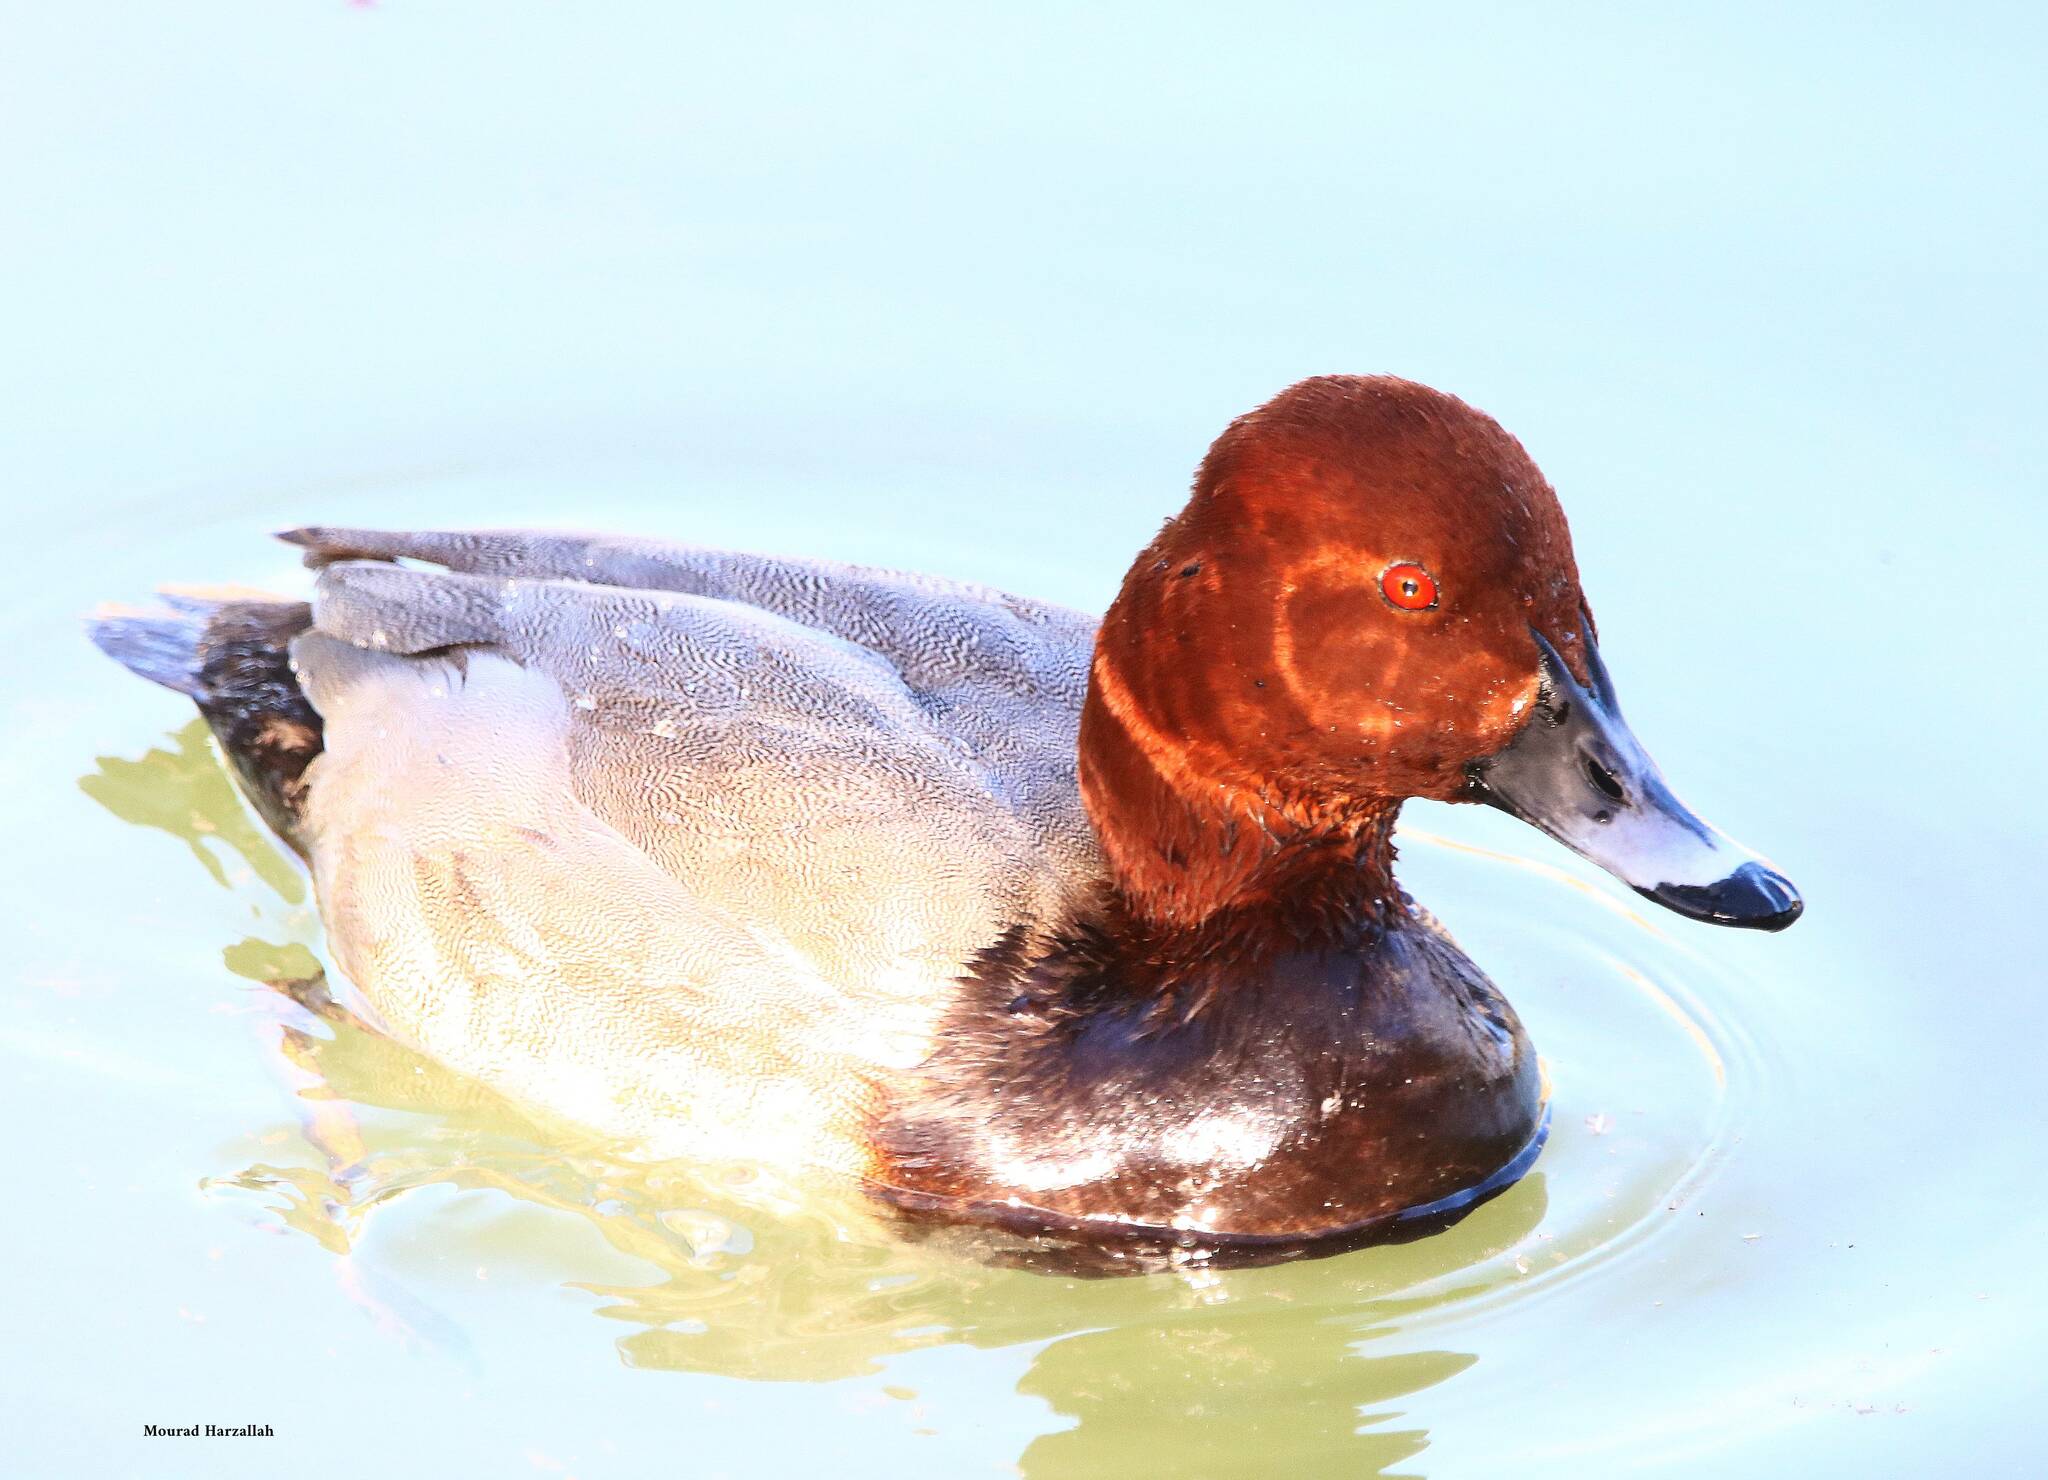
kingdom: Animalia
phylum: Chordata
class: Aves
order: Anseriformes
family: Anatidae
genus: Aythya
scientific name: Aythya ferina
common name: Common pochard
